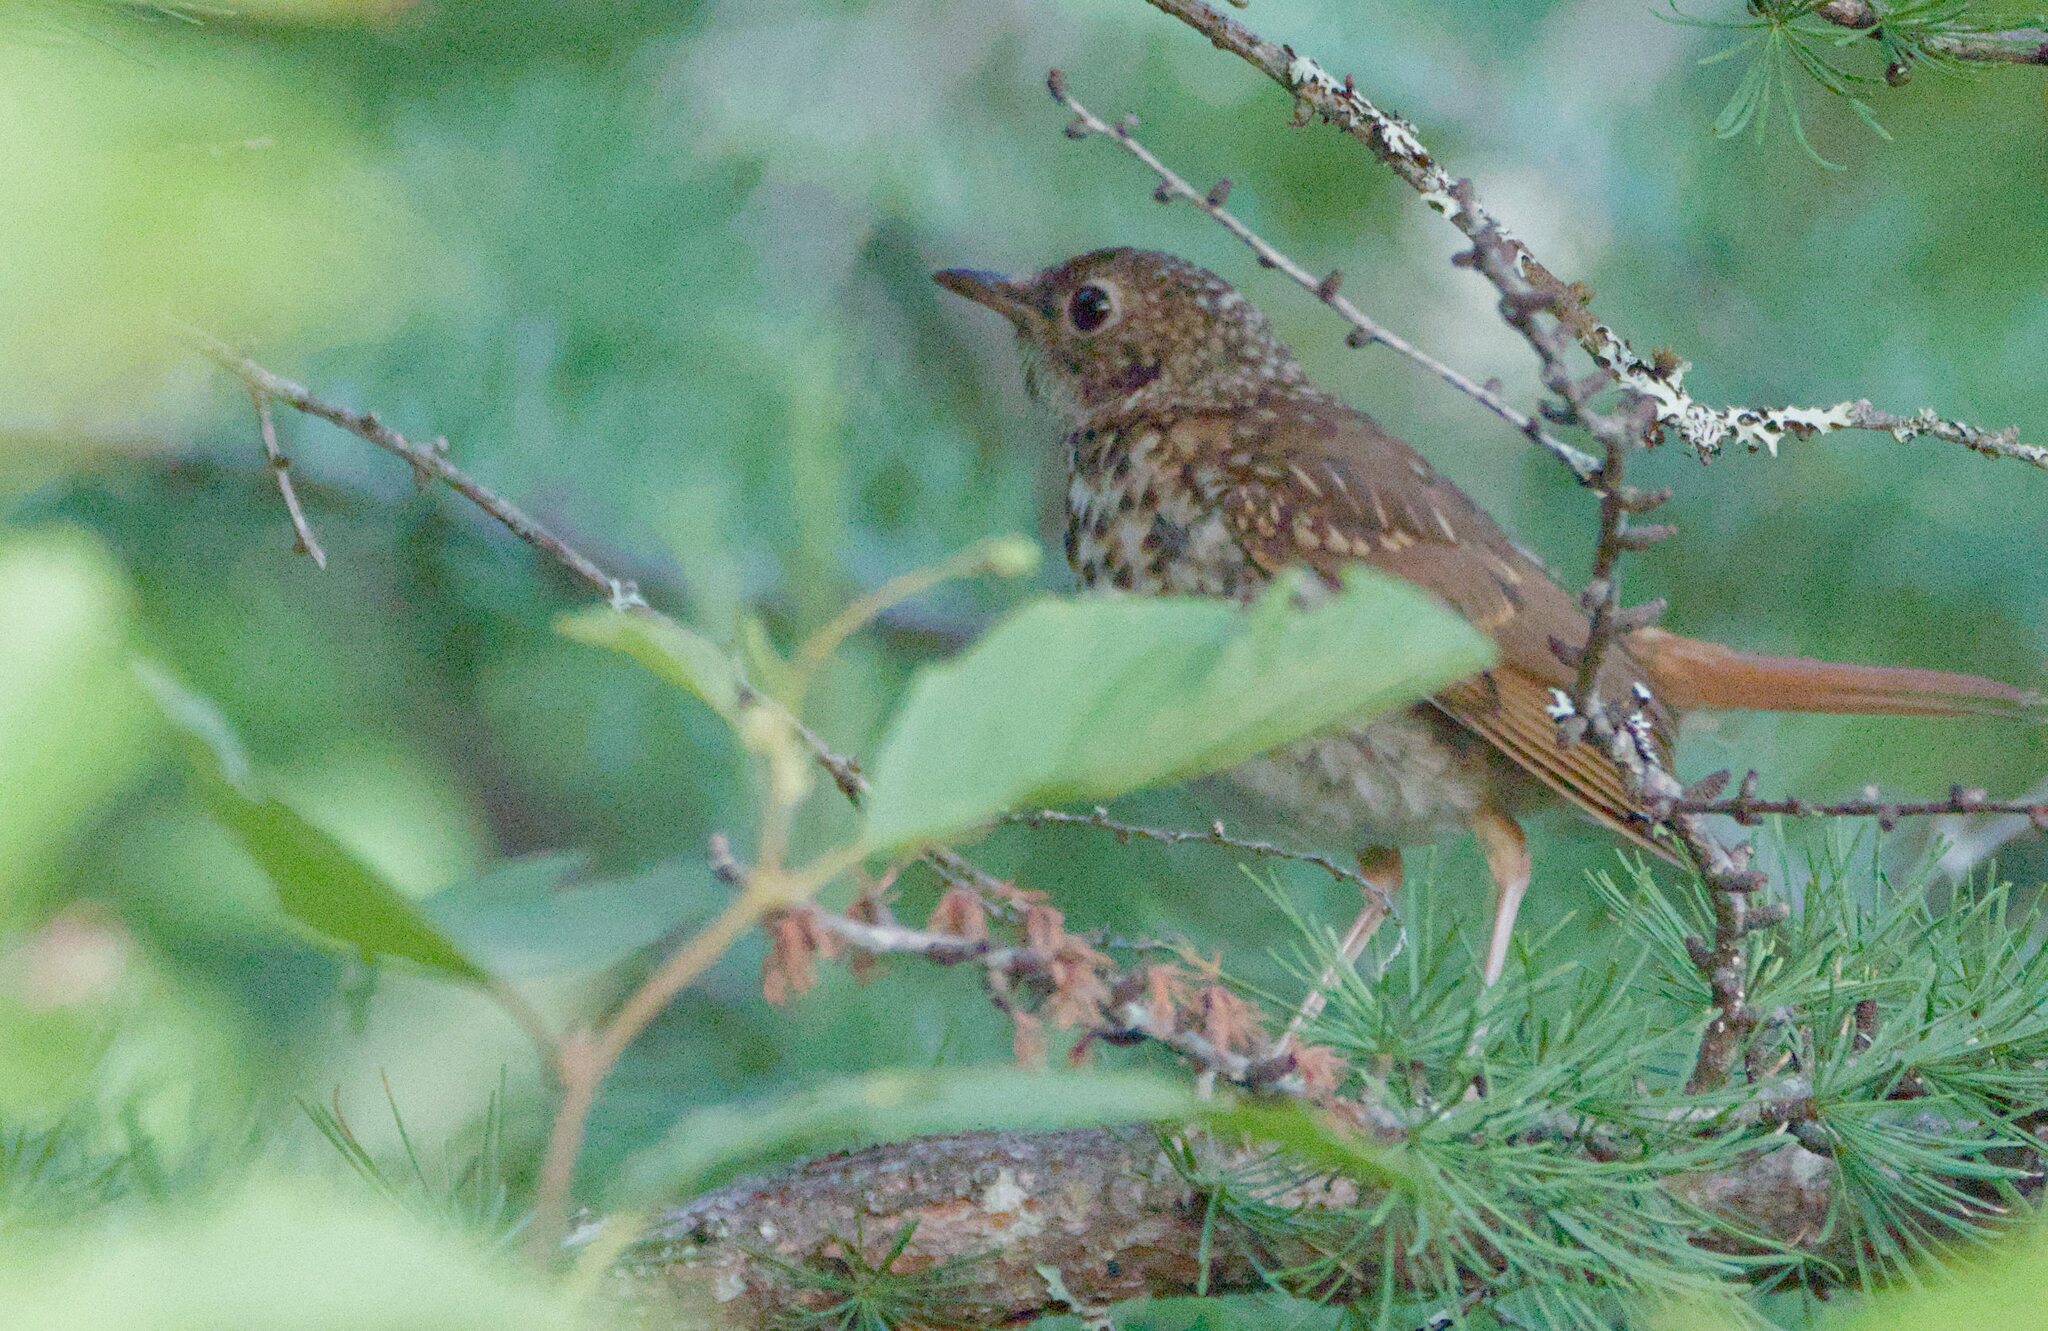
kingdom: Animalia
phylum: Chordata
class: Aves
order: Passeriformes
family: Turdidae
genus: Catharus
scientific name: Catharus guttatus
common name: Hermit thrush
